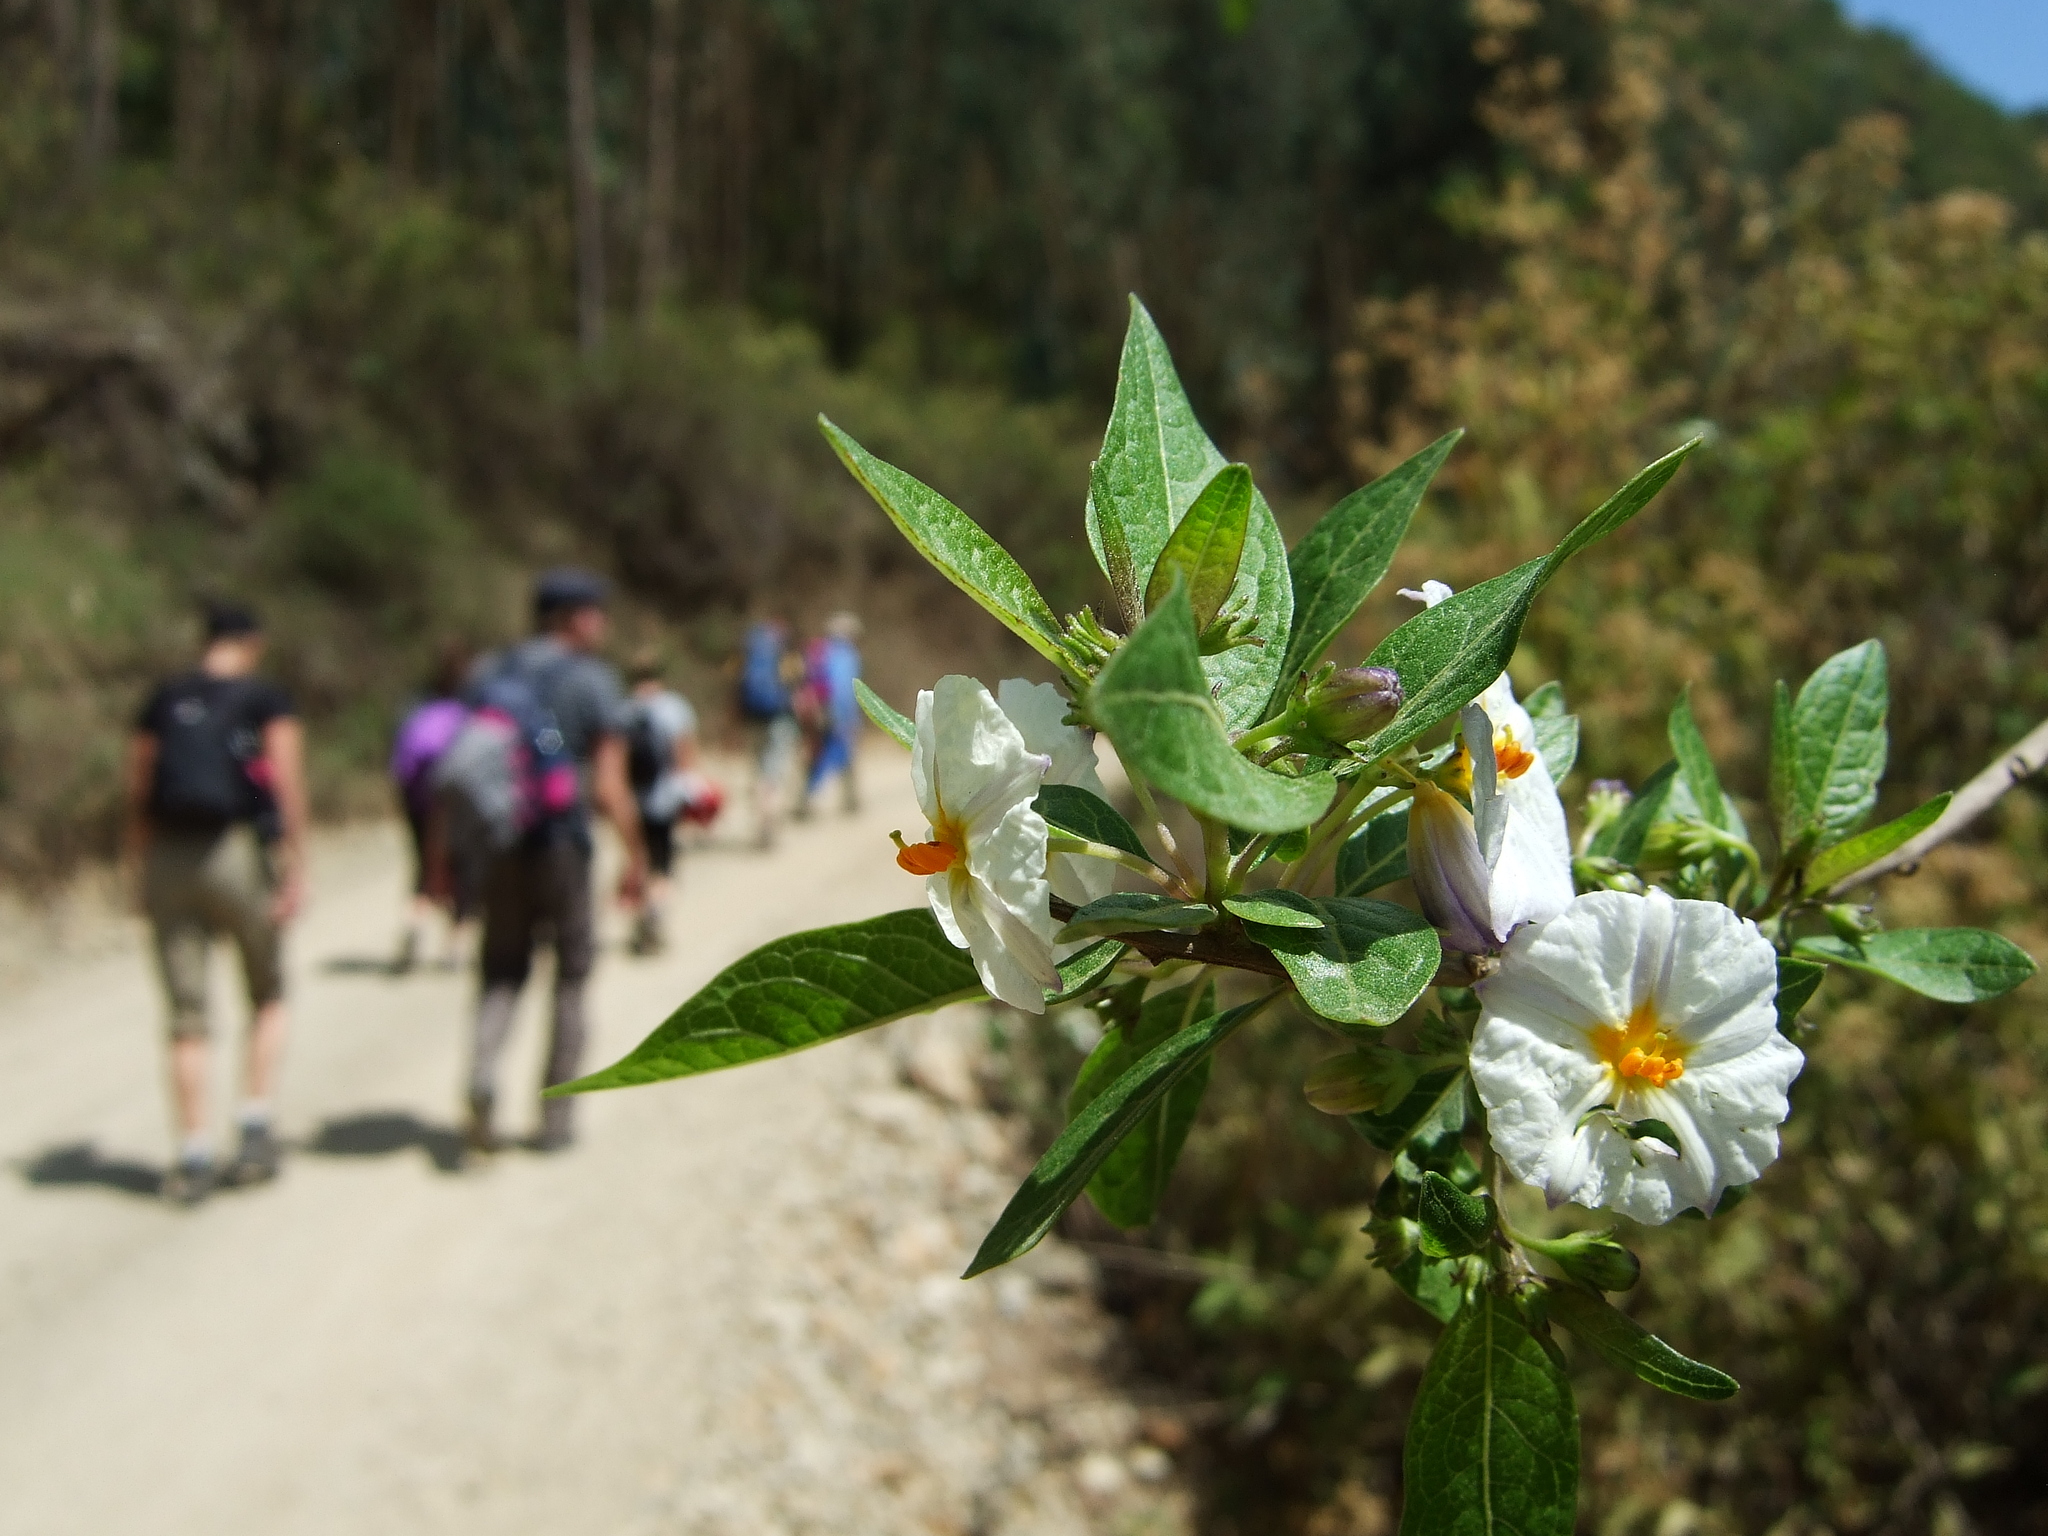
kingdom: Plantae
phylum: Tracheophyta
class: Magnoliopsida
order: Solanales
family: Solanaceae
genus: Lycianthes
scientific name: Lycianthes lycioides
